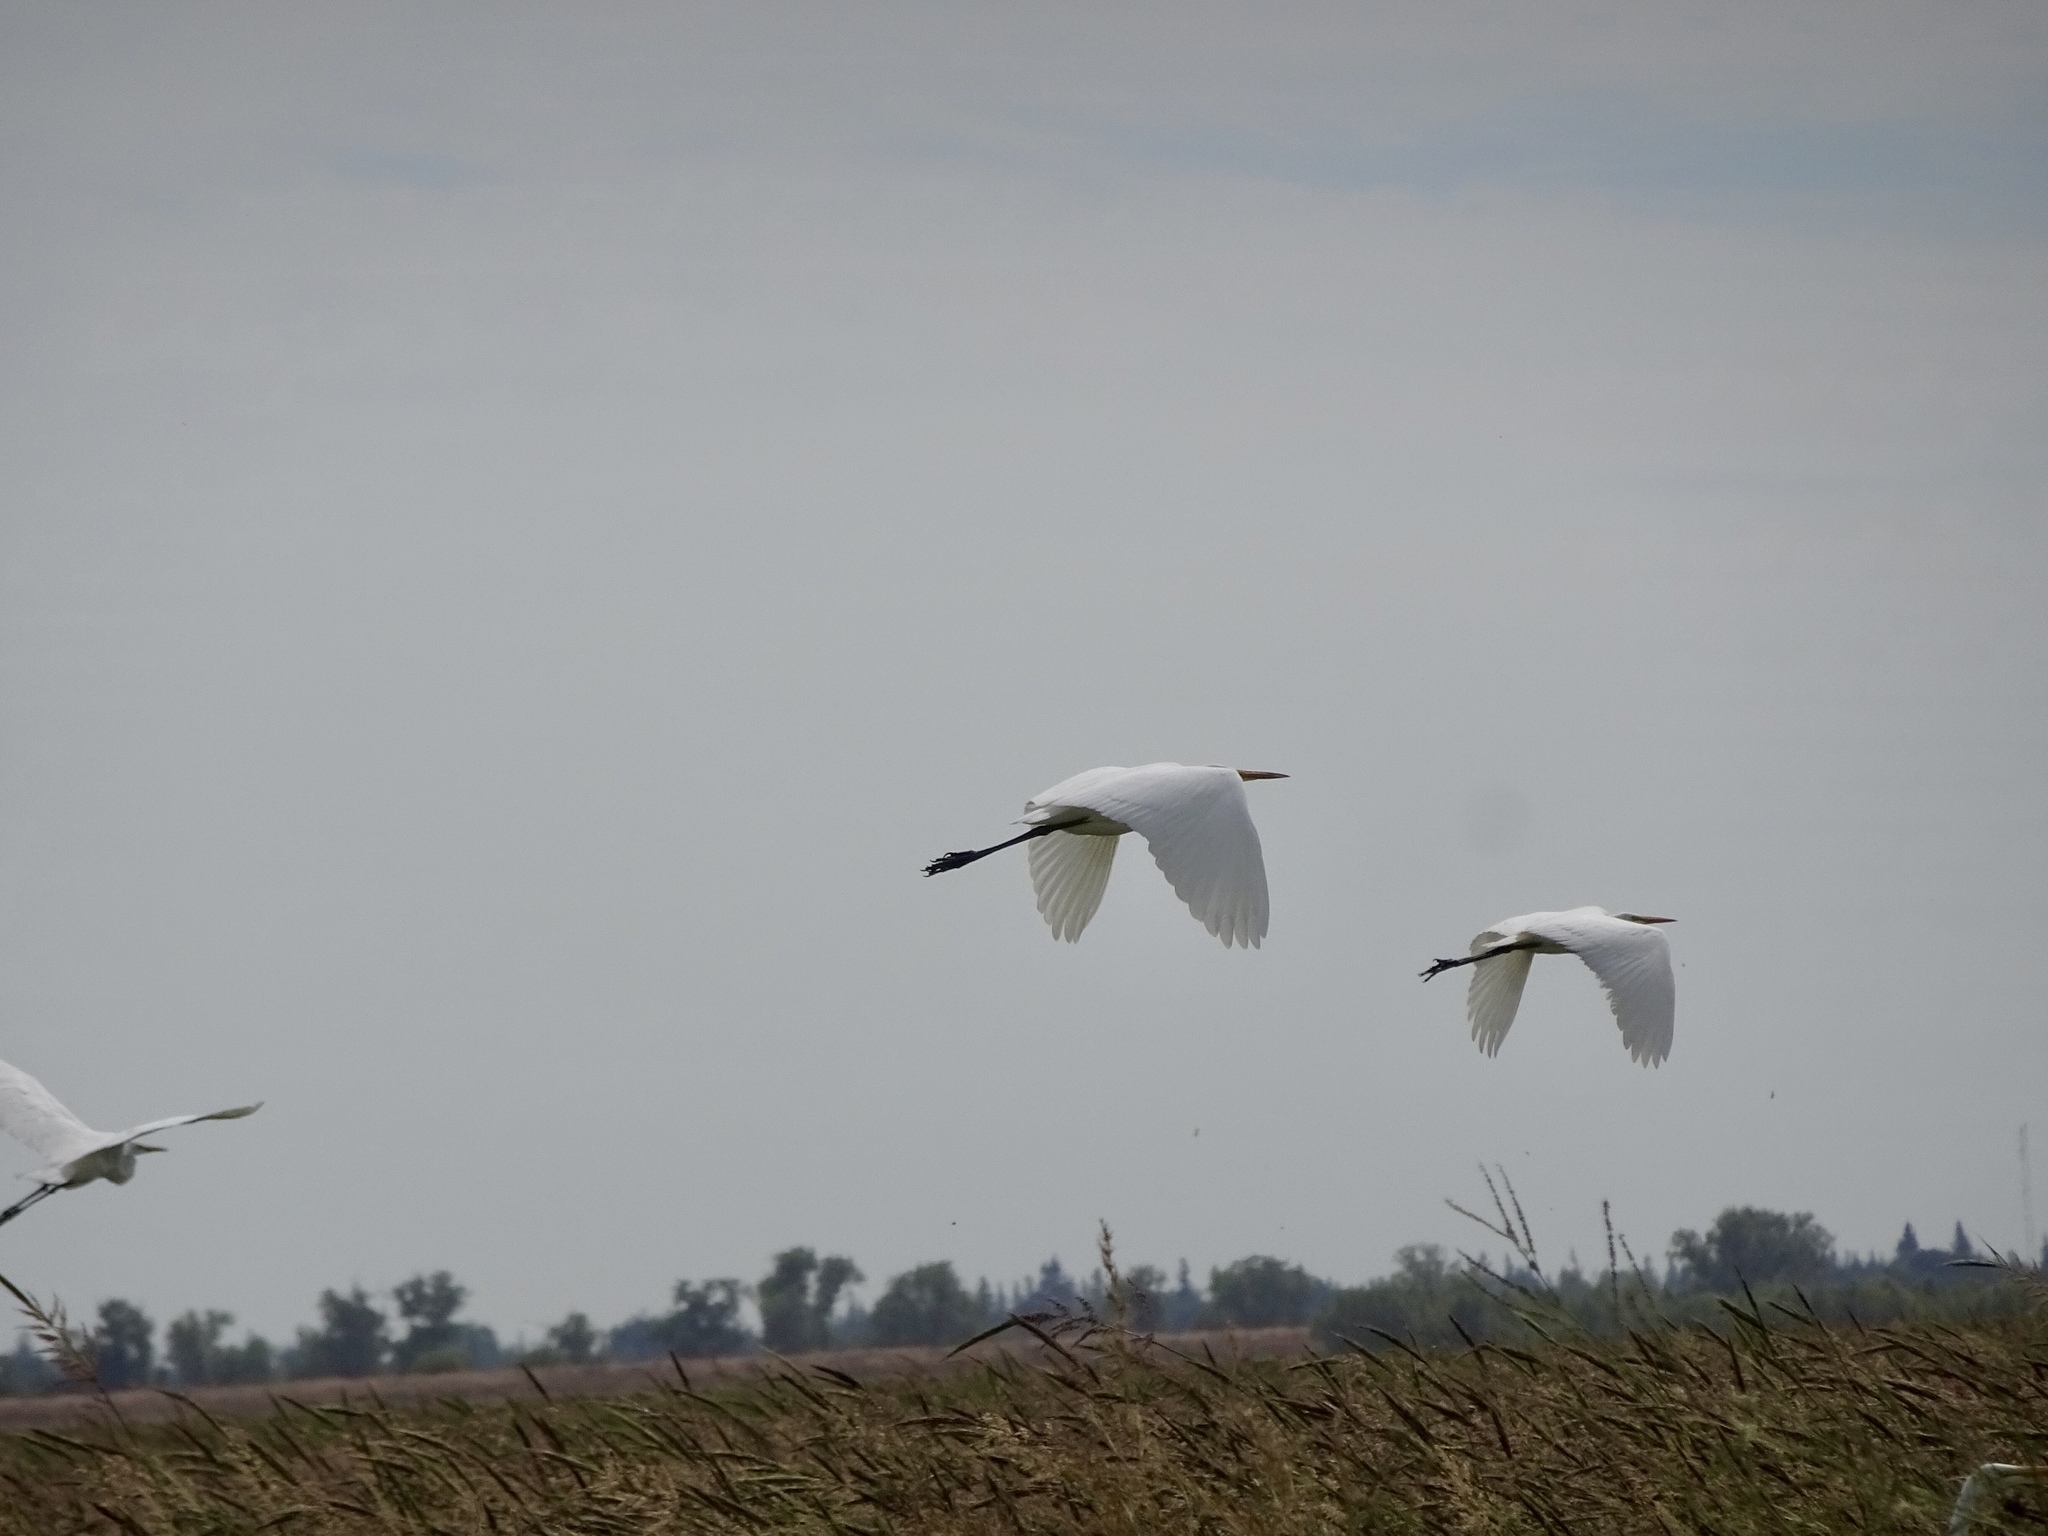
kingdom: Animalia
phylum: Chordata
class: Aves
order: Pelecaniformes
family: Ardeidae
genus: Ardea
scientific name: Ardea alba
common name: Great egret
